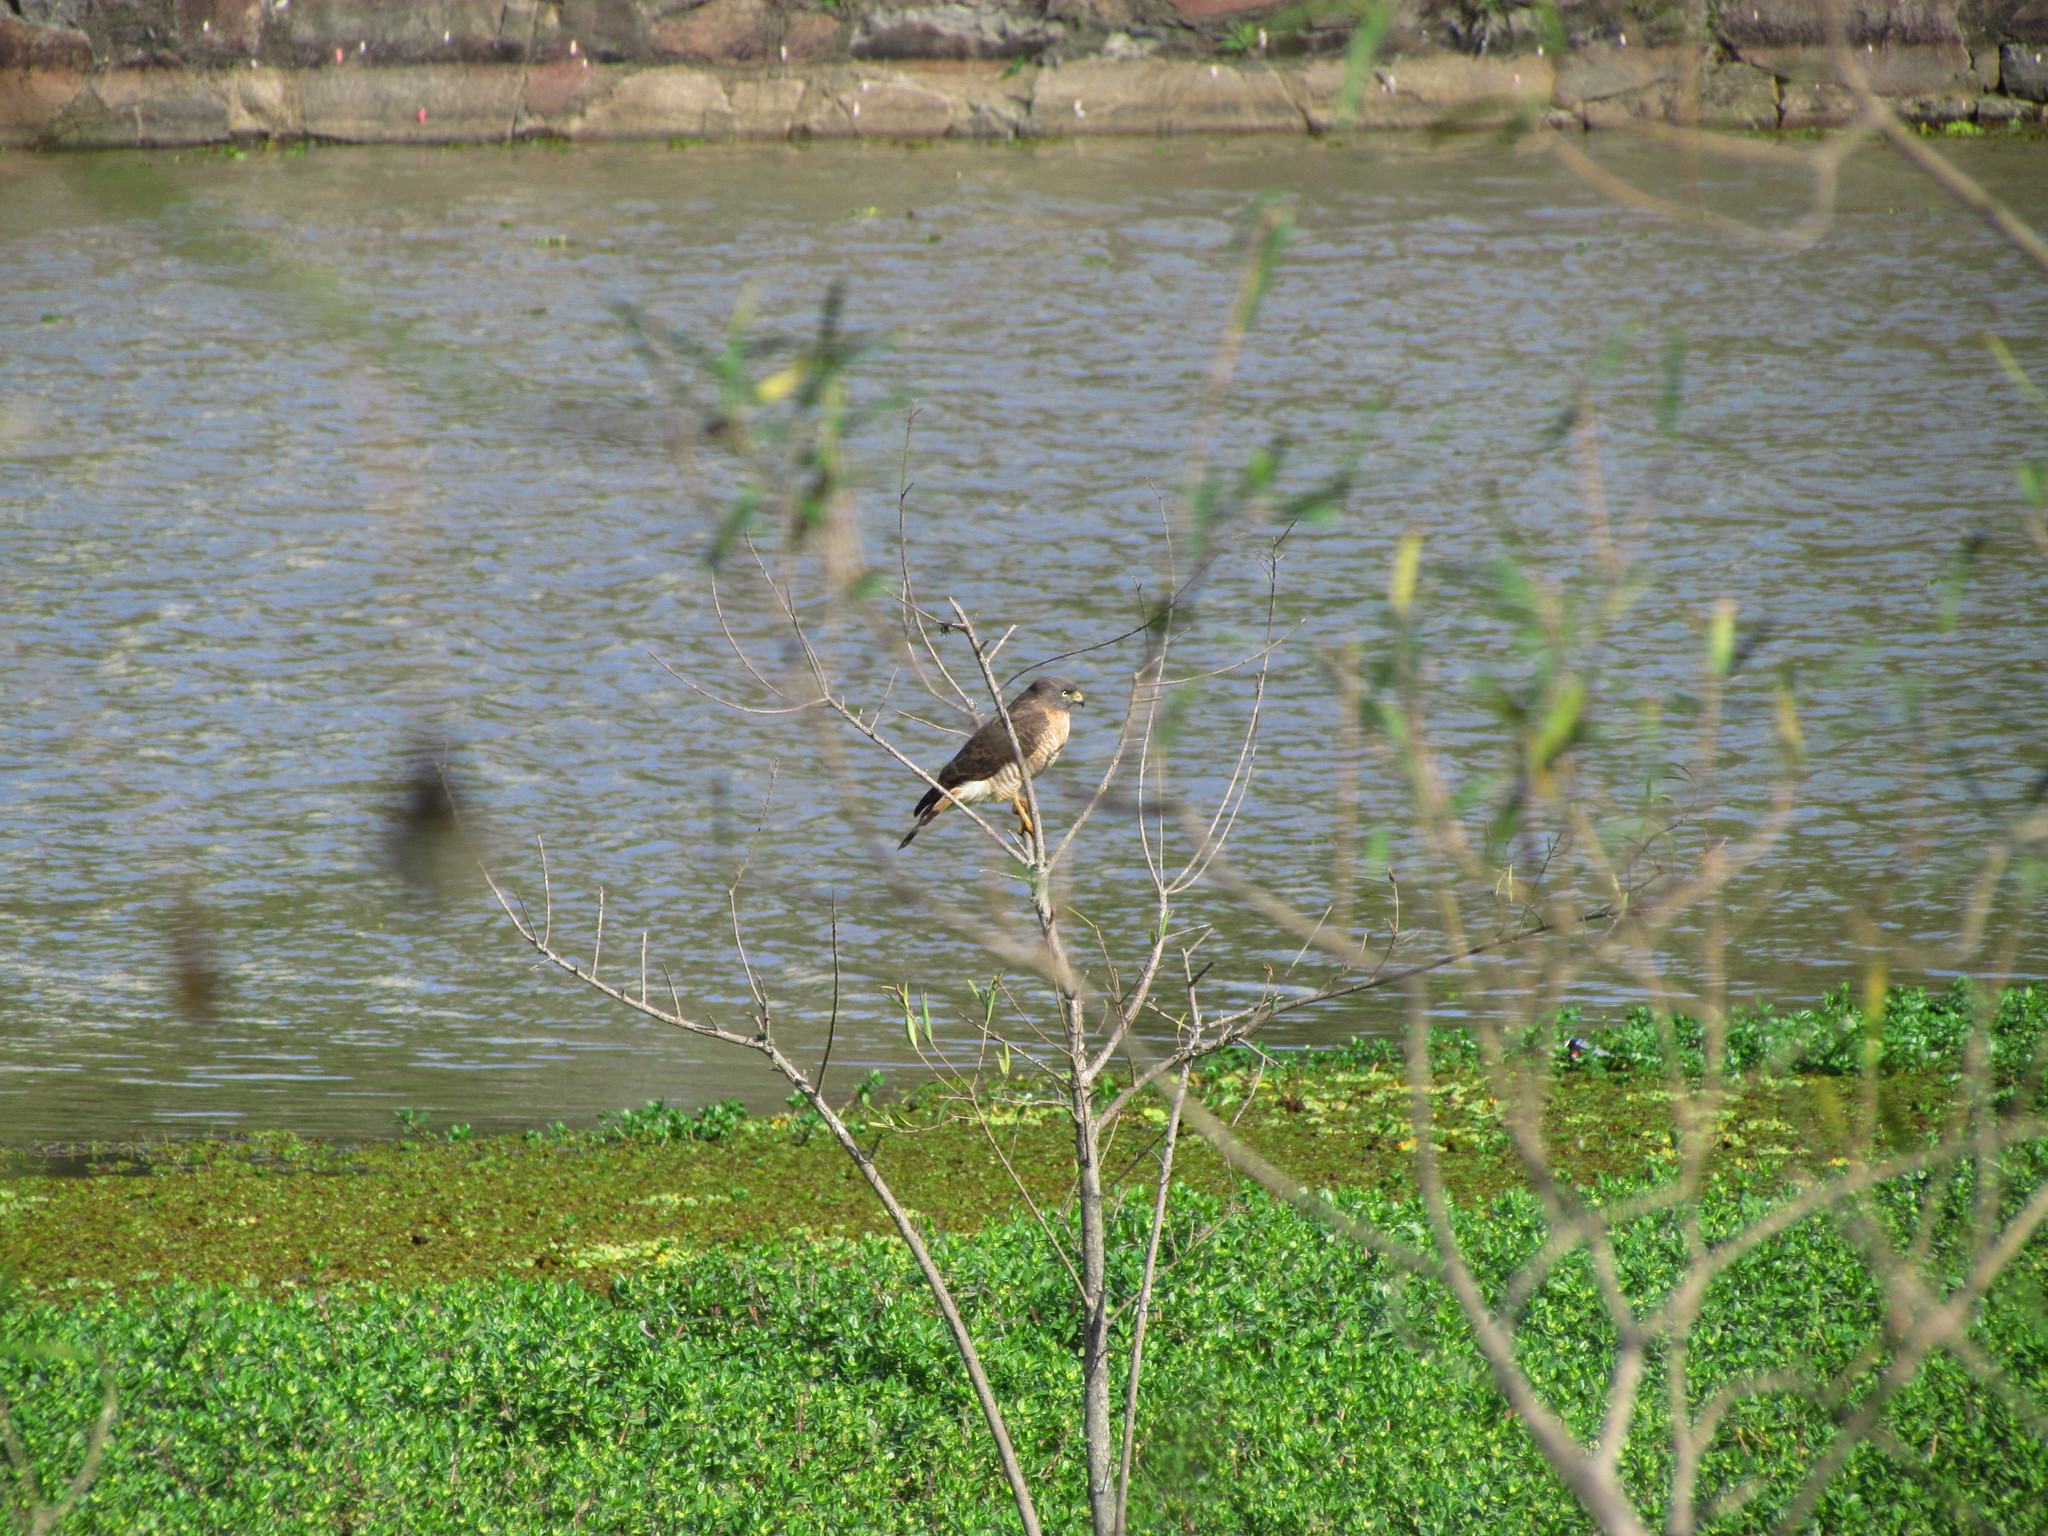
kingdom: Animalia
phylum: Chordata
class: Aves
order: Accipitriformes
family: Accipitridae
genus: Rupornis
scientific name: Rupornis magnirostris
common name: Roadside hawk
